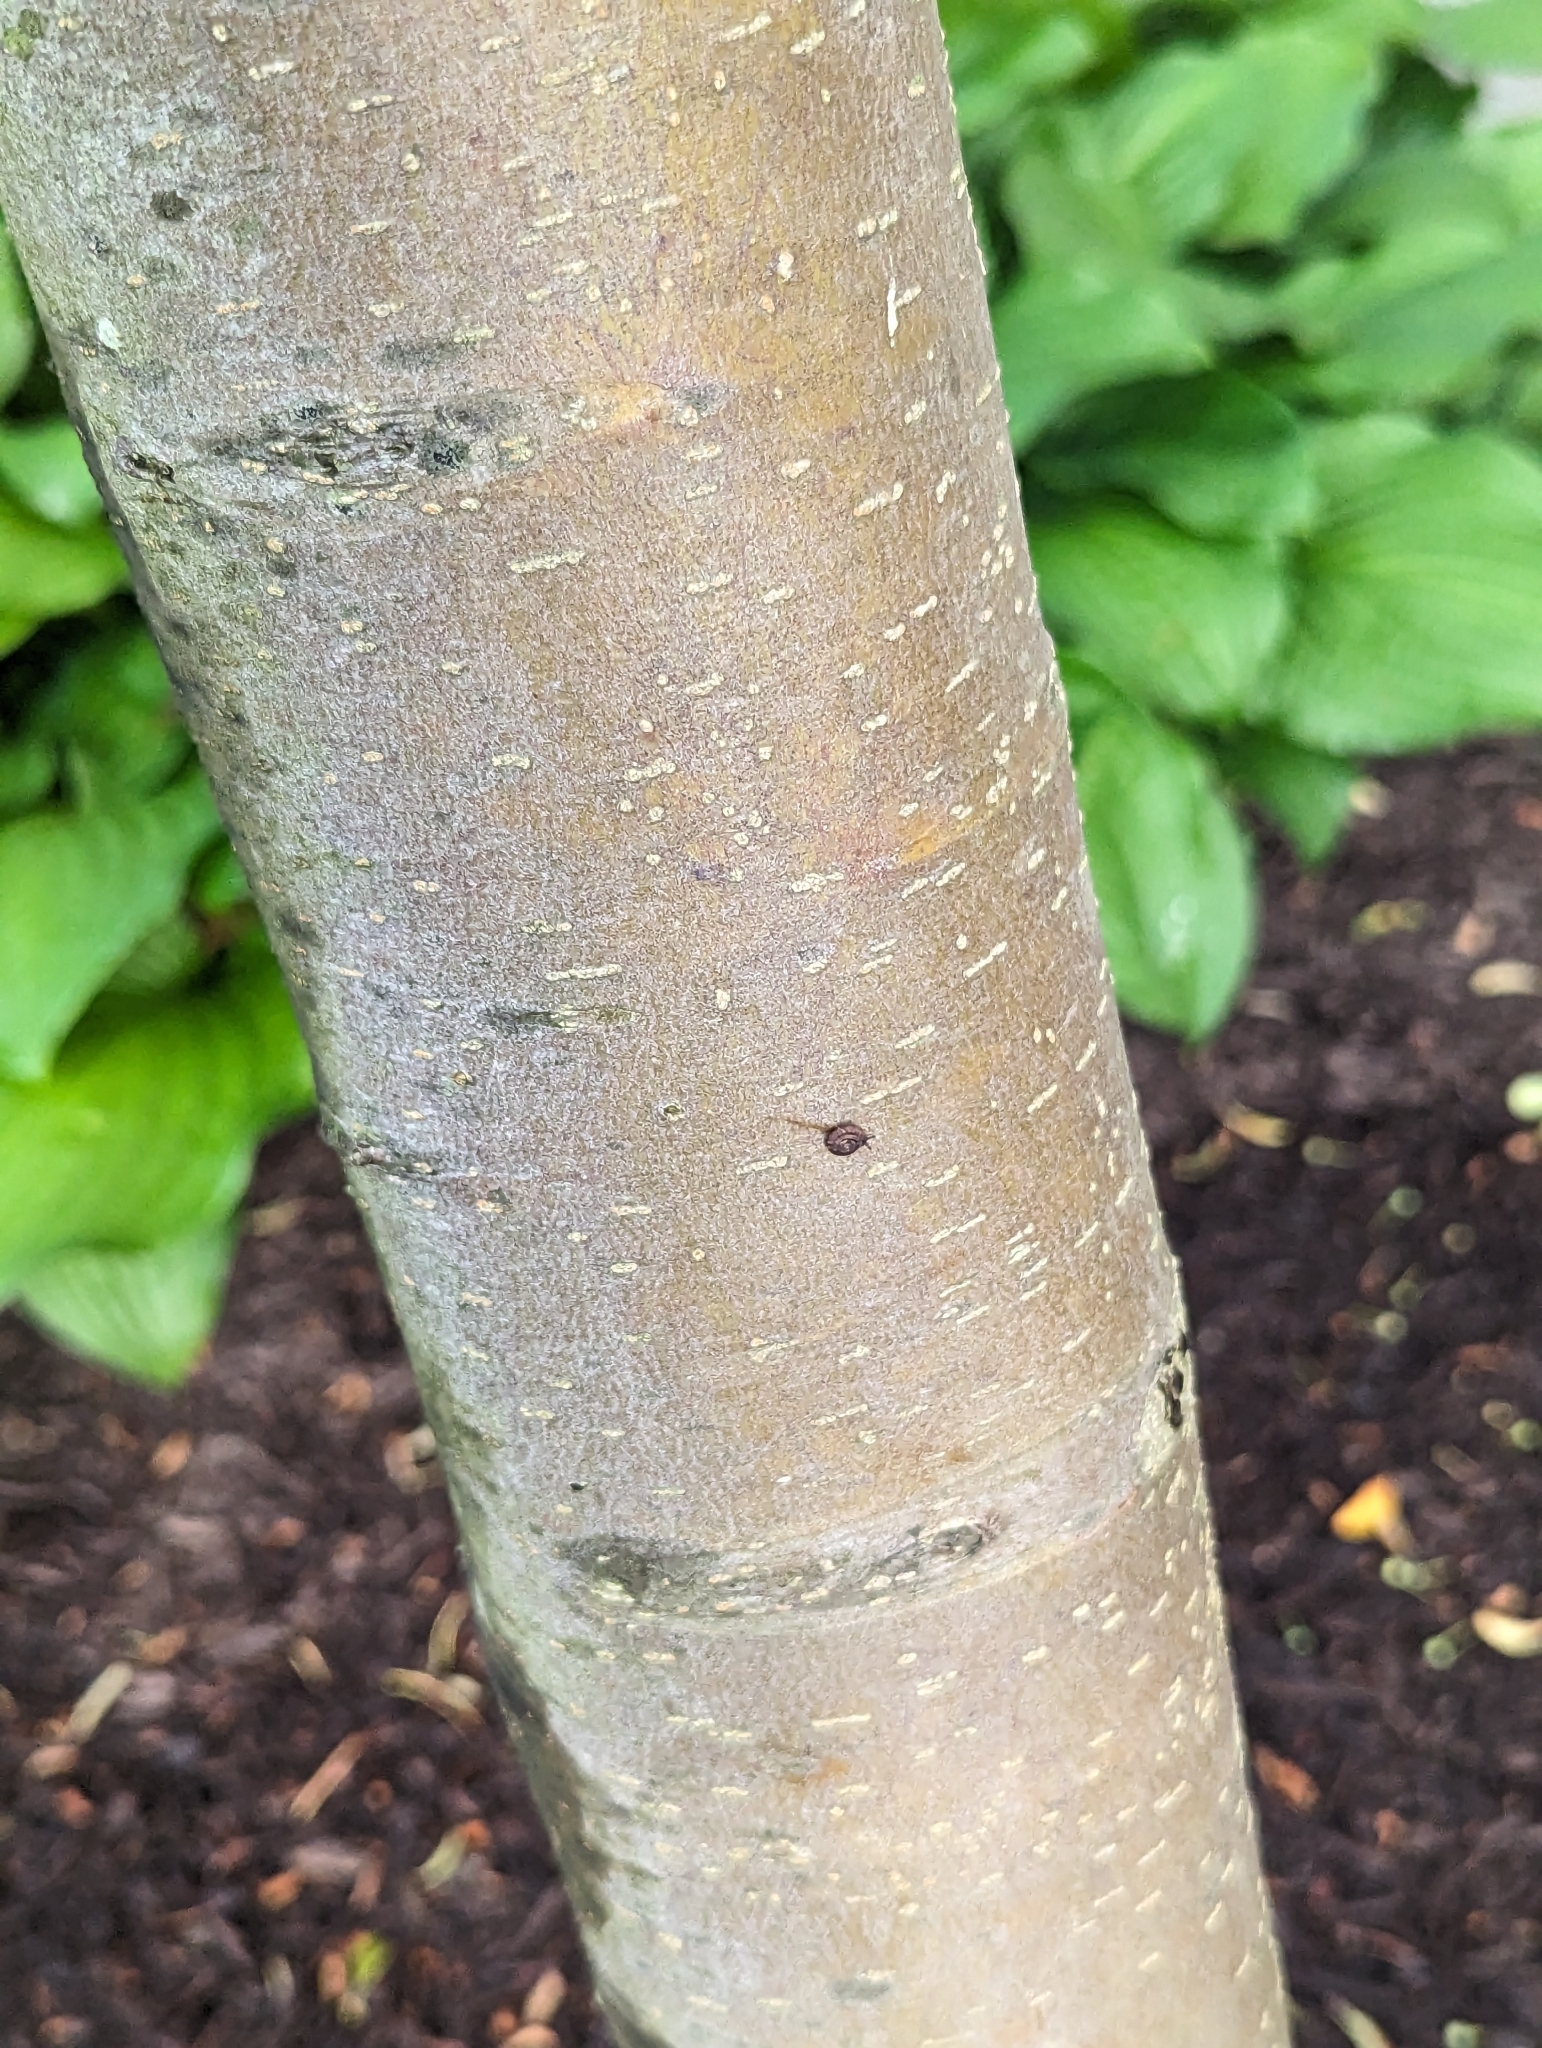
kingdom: Animalia
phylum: Mollusca
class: Gastropoda
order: Stylommatophora
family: Discidae
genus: Discus
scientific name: Discus rotundatus
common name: Rounded snail
